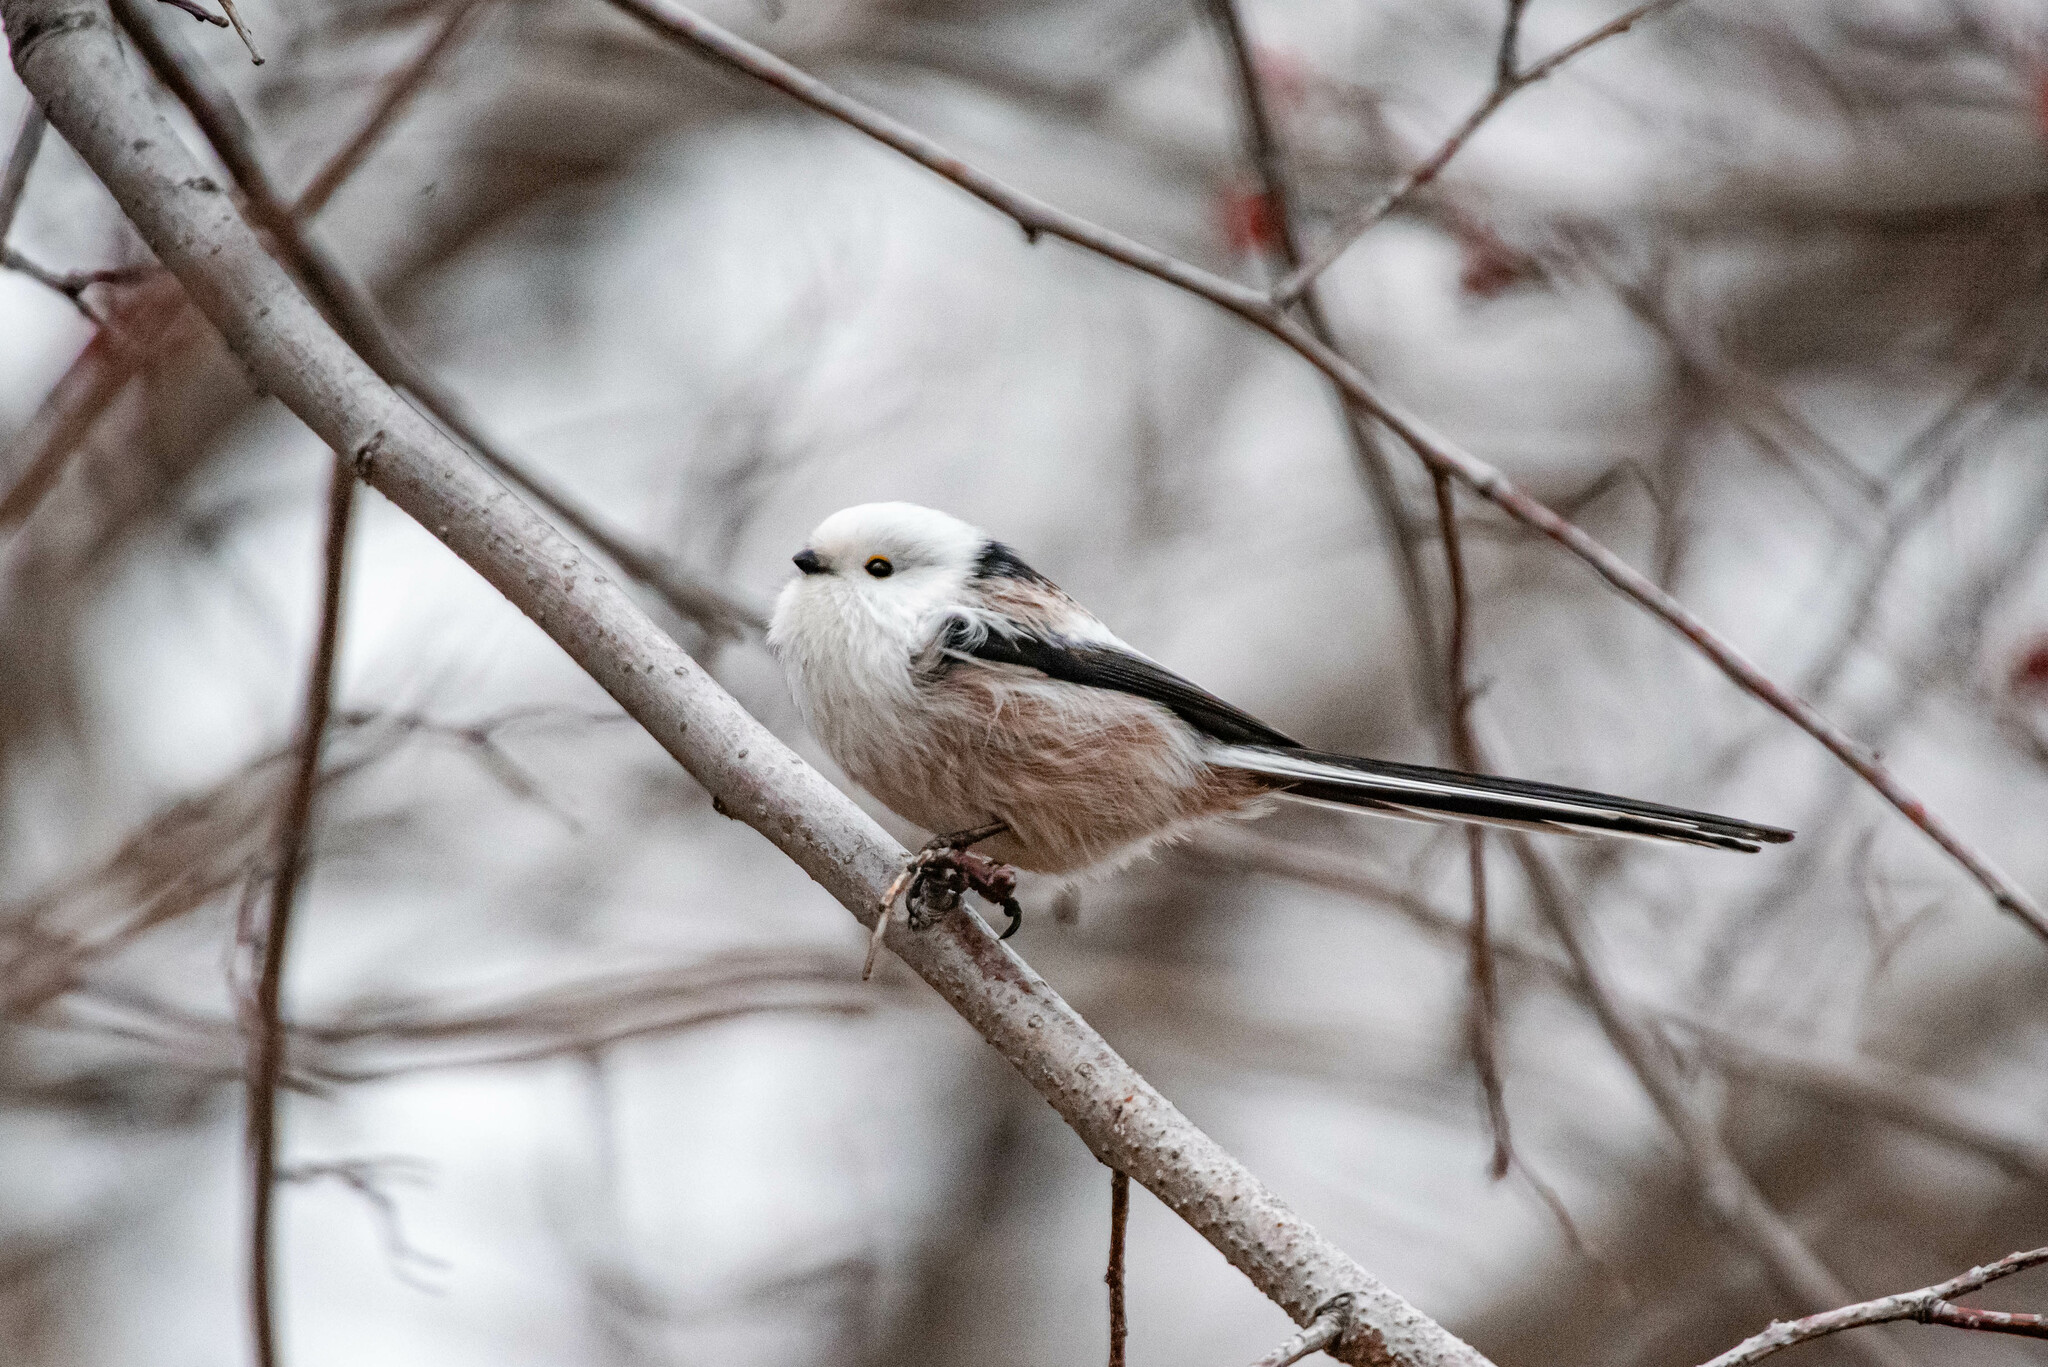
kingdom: Animalia
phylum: Chordata
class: Aves
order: Passeriformes
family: Aegithalidae
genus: Aegithalos
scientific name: Aegithalos caudatus
